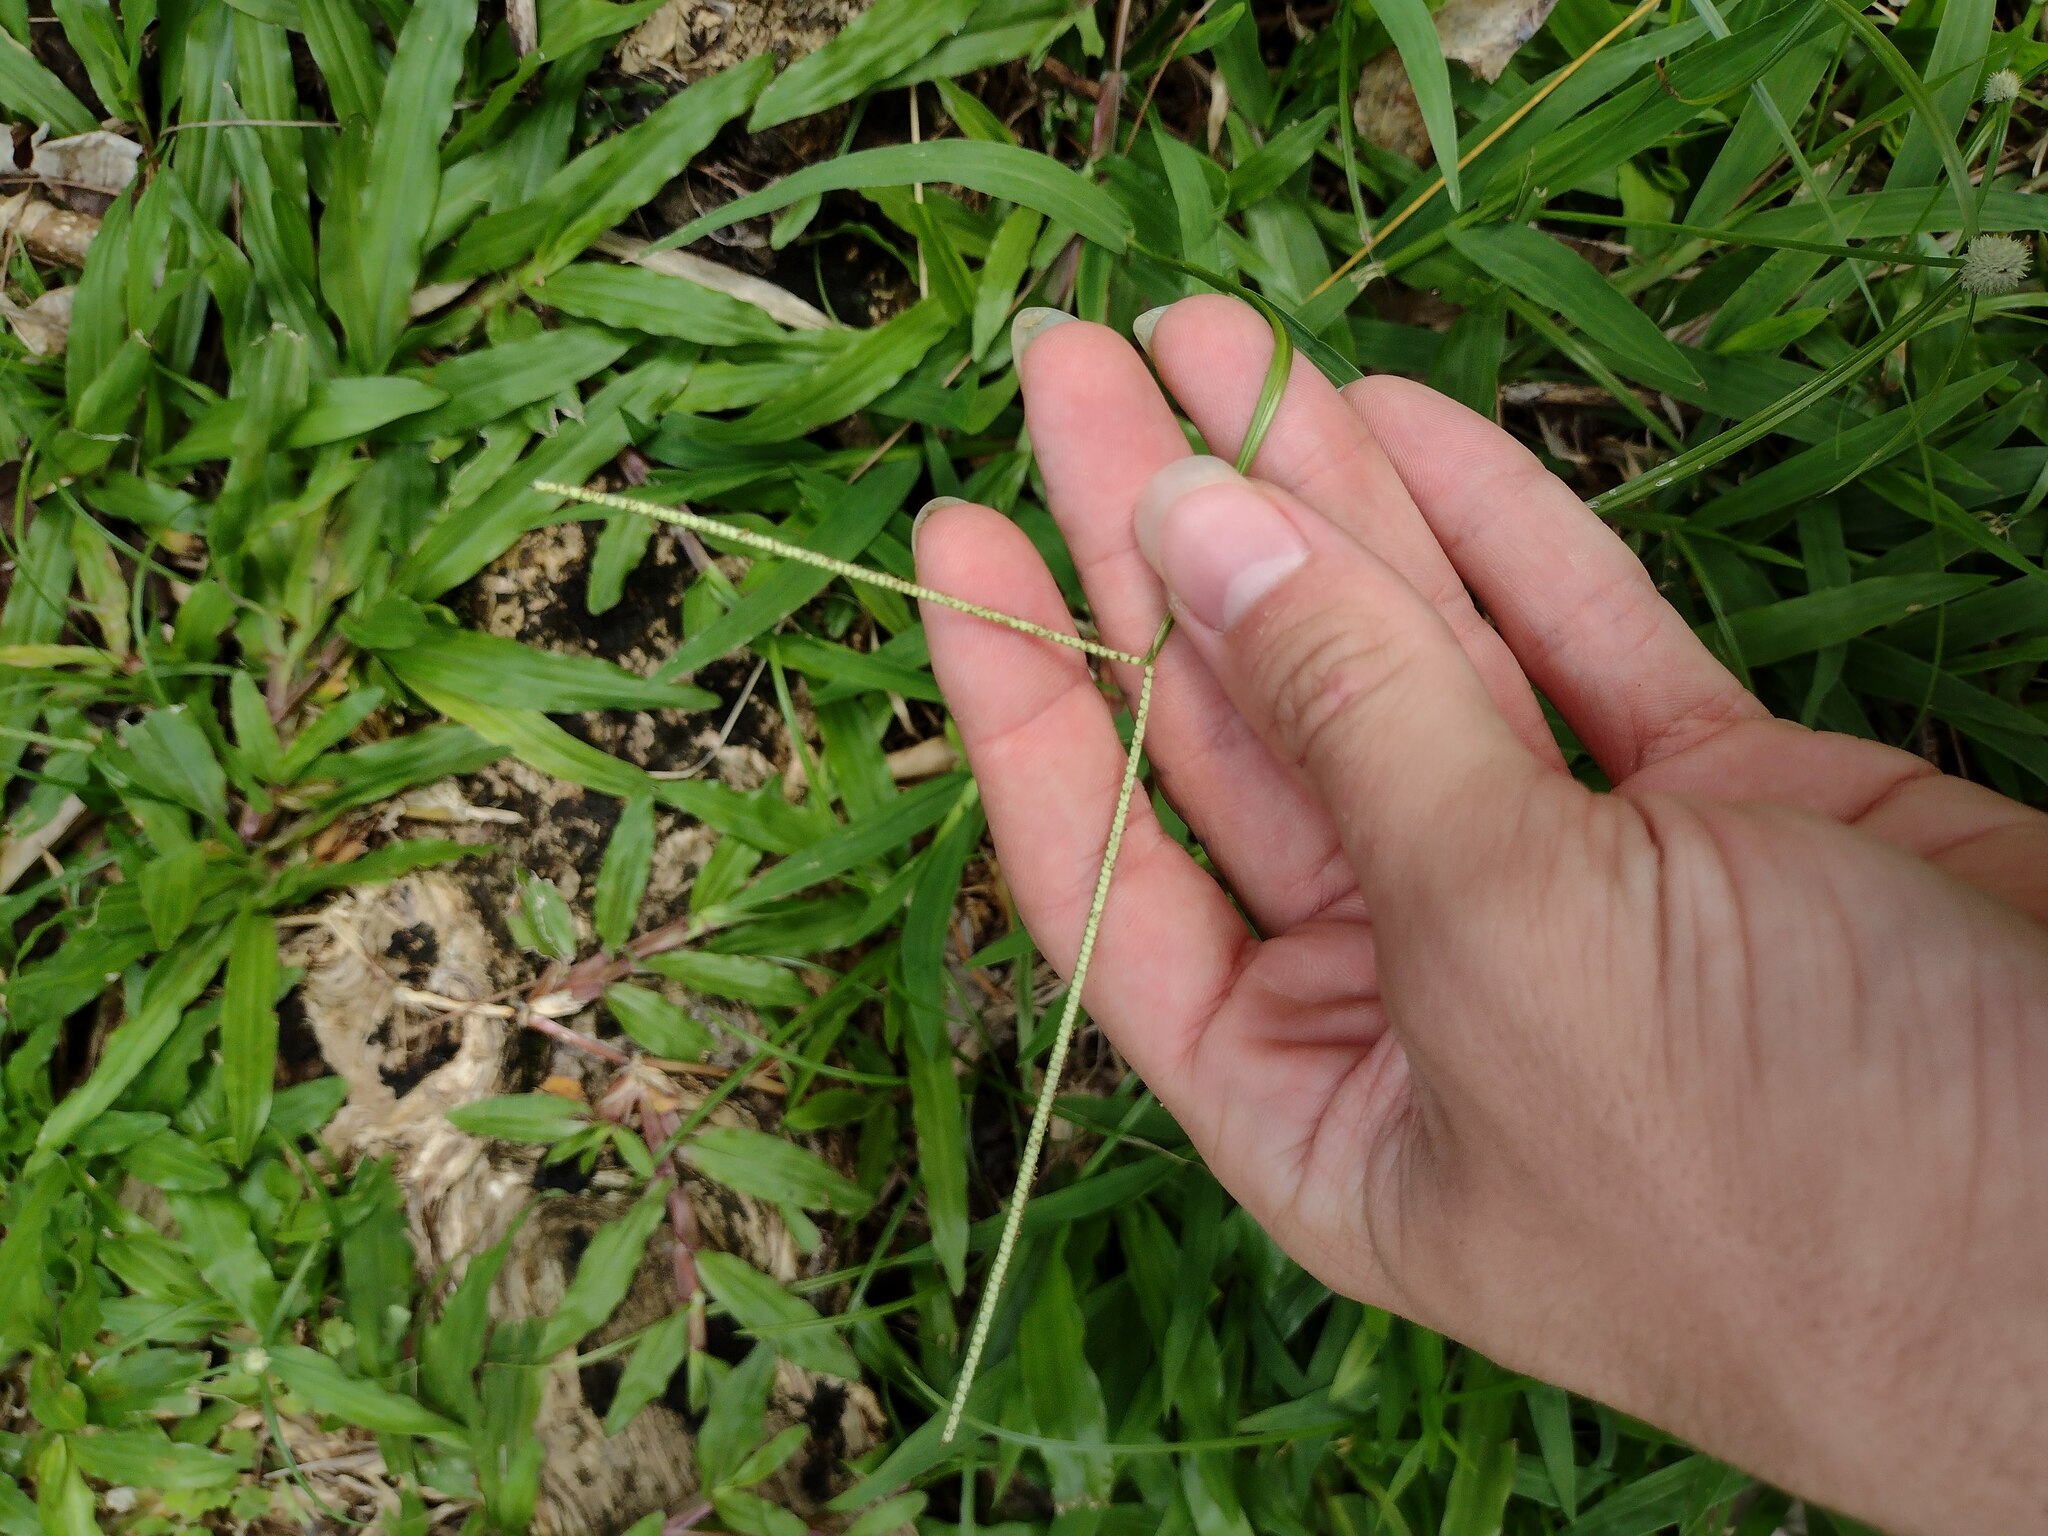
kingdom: Plantae
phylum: Tracheophyta
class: Liliopsida
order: Poales
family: Poaceae
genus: Paspalum
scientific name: Paspalum conjugatum
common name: Hilograss
